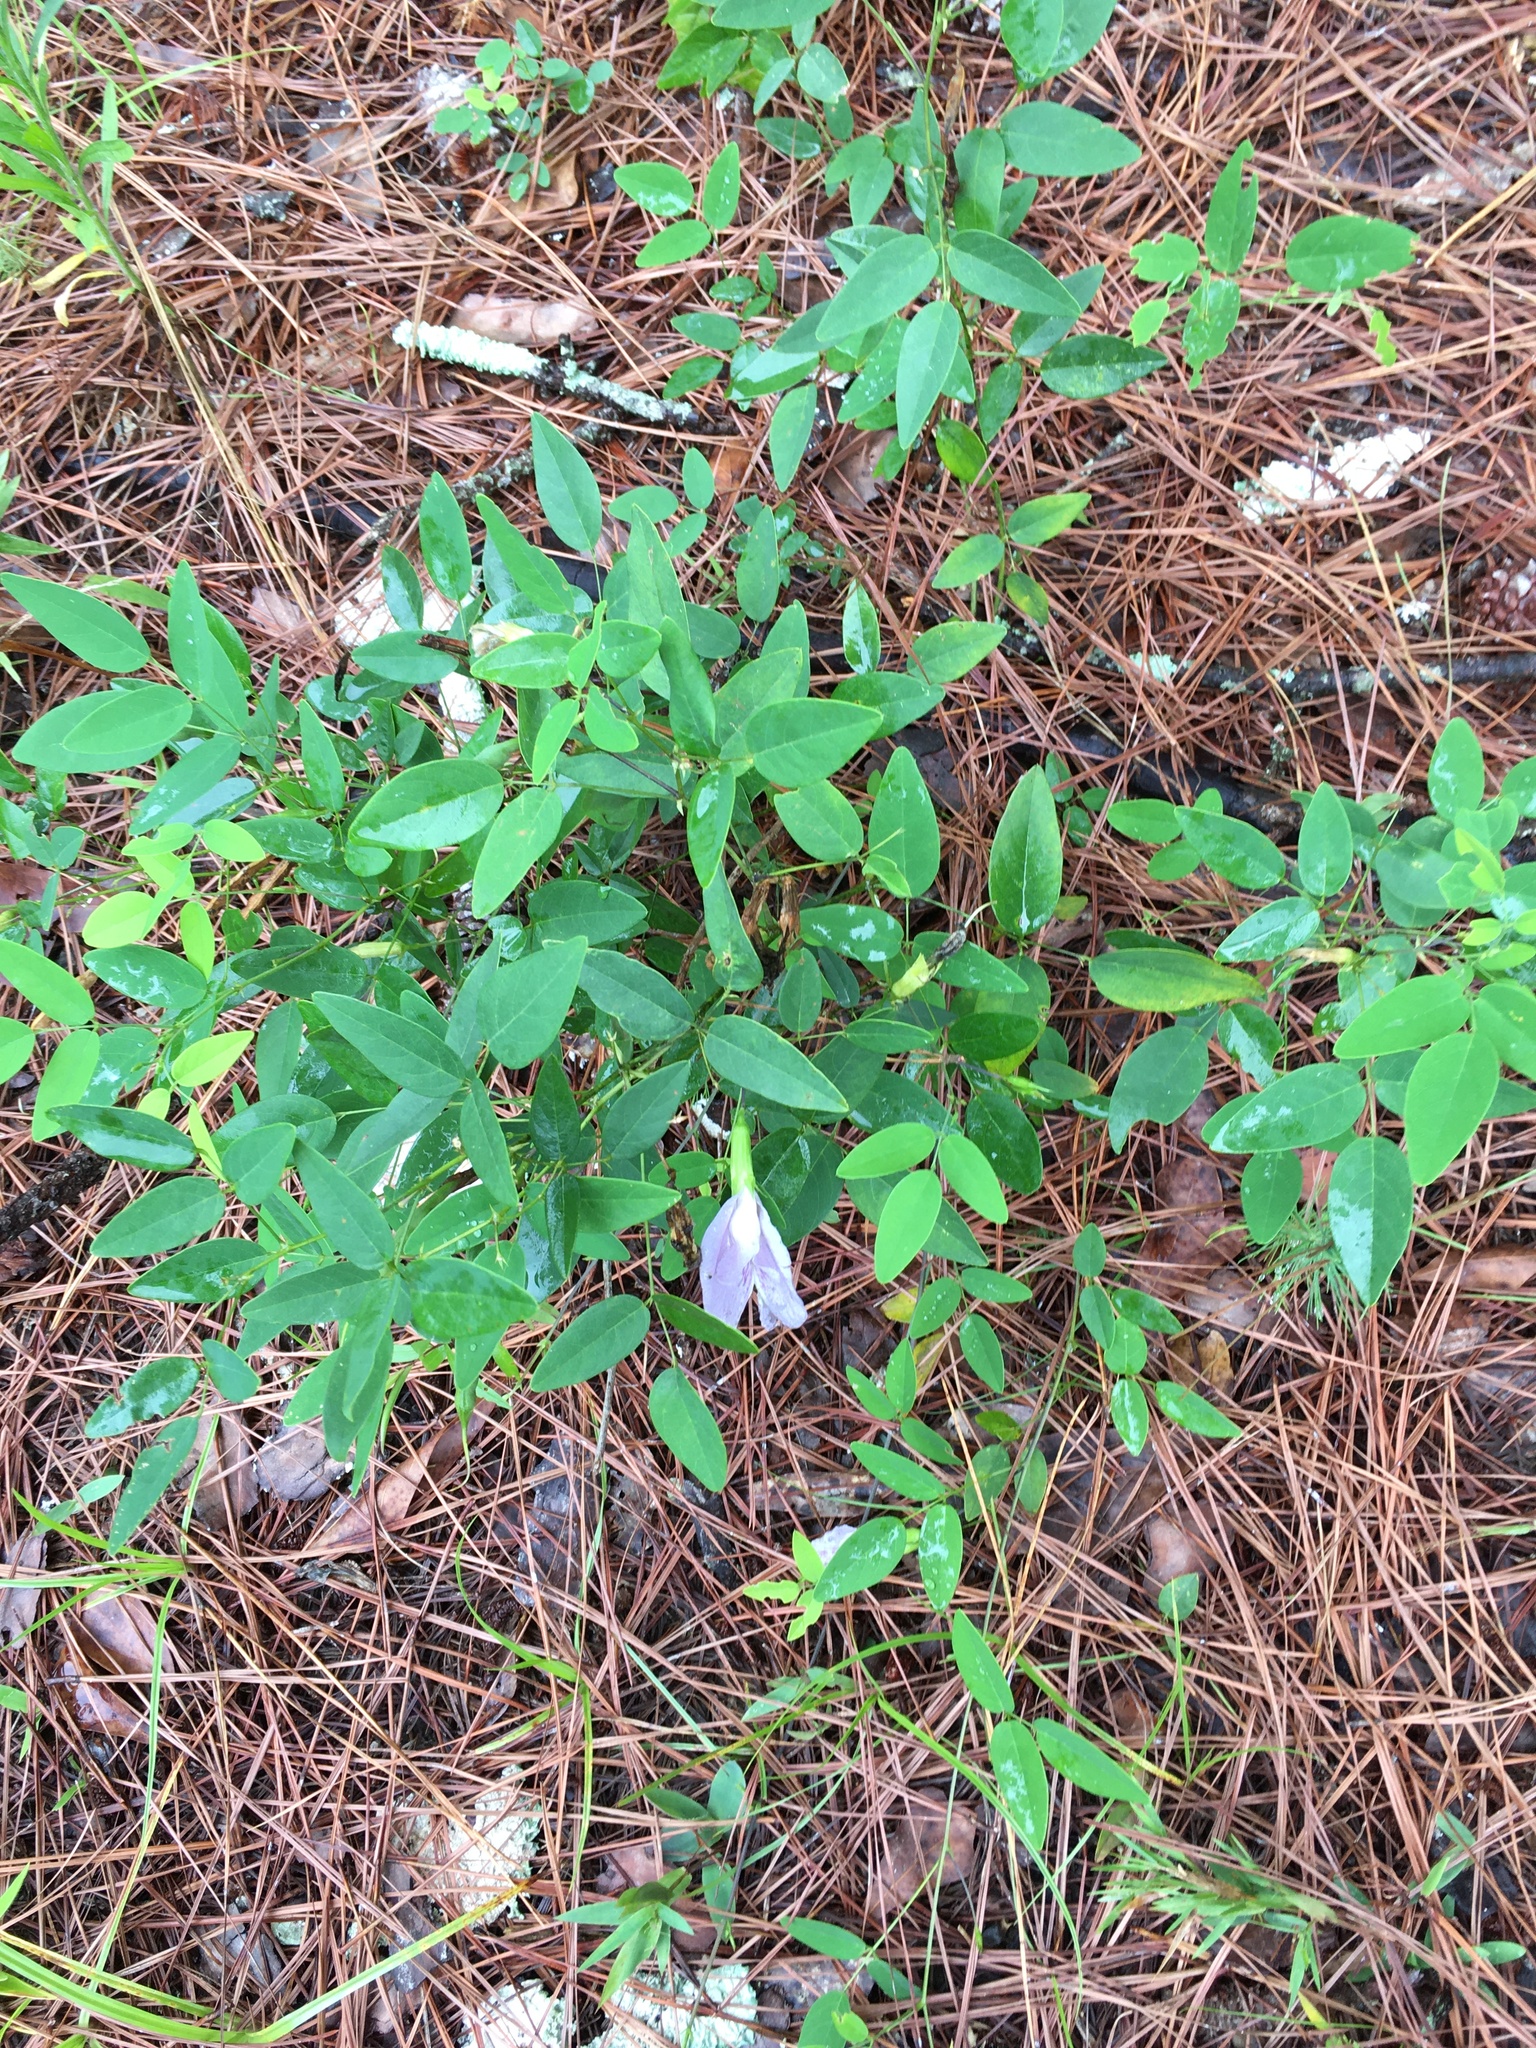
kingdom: Plantae
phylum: Tracheophyta
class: Magnoliopsida
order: Fabales
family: Fabaceae
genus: Clitoria
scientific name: Clitoria mariana
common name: Butterfly-pea
